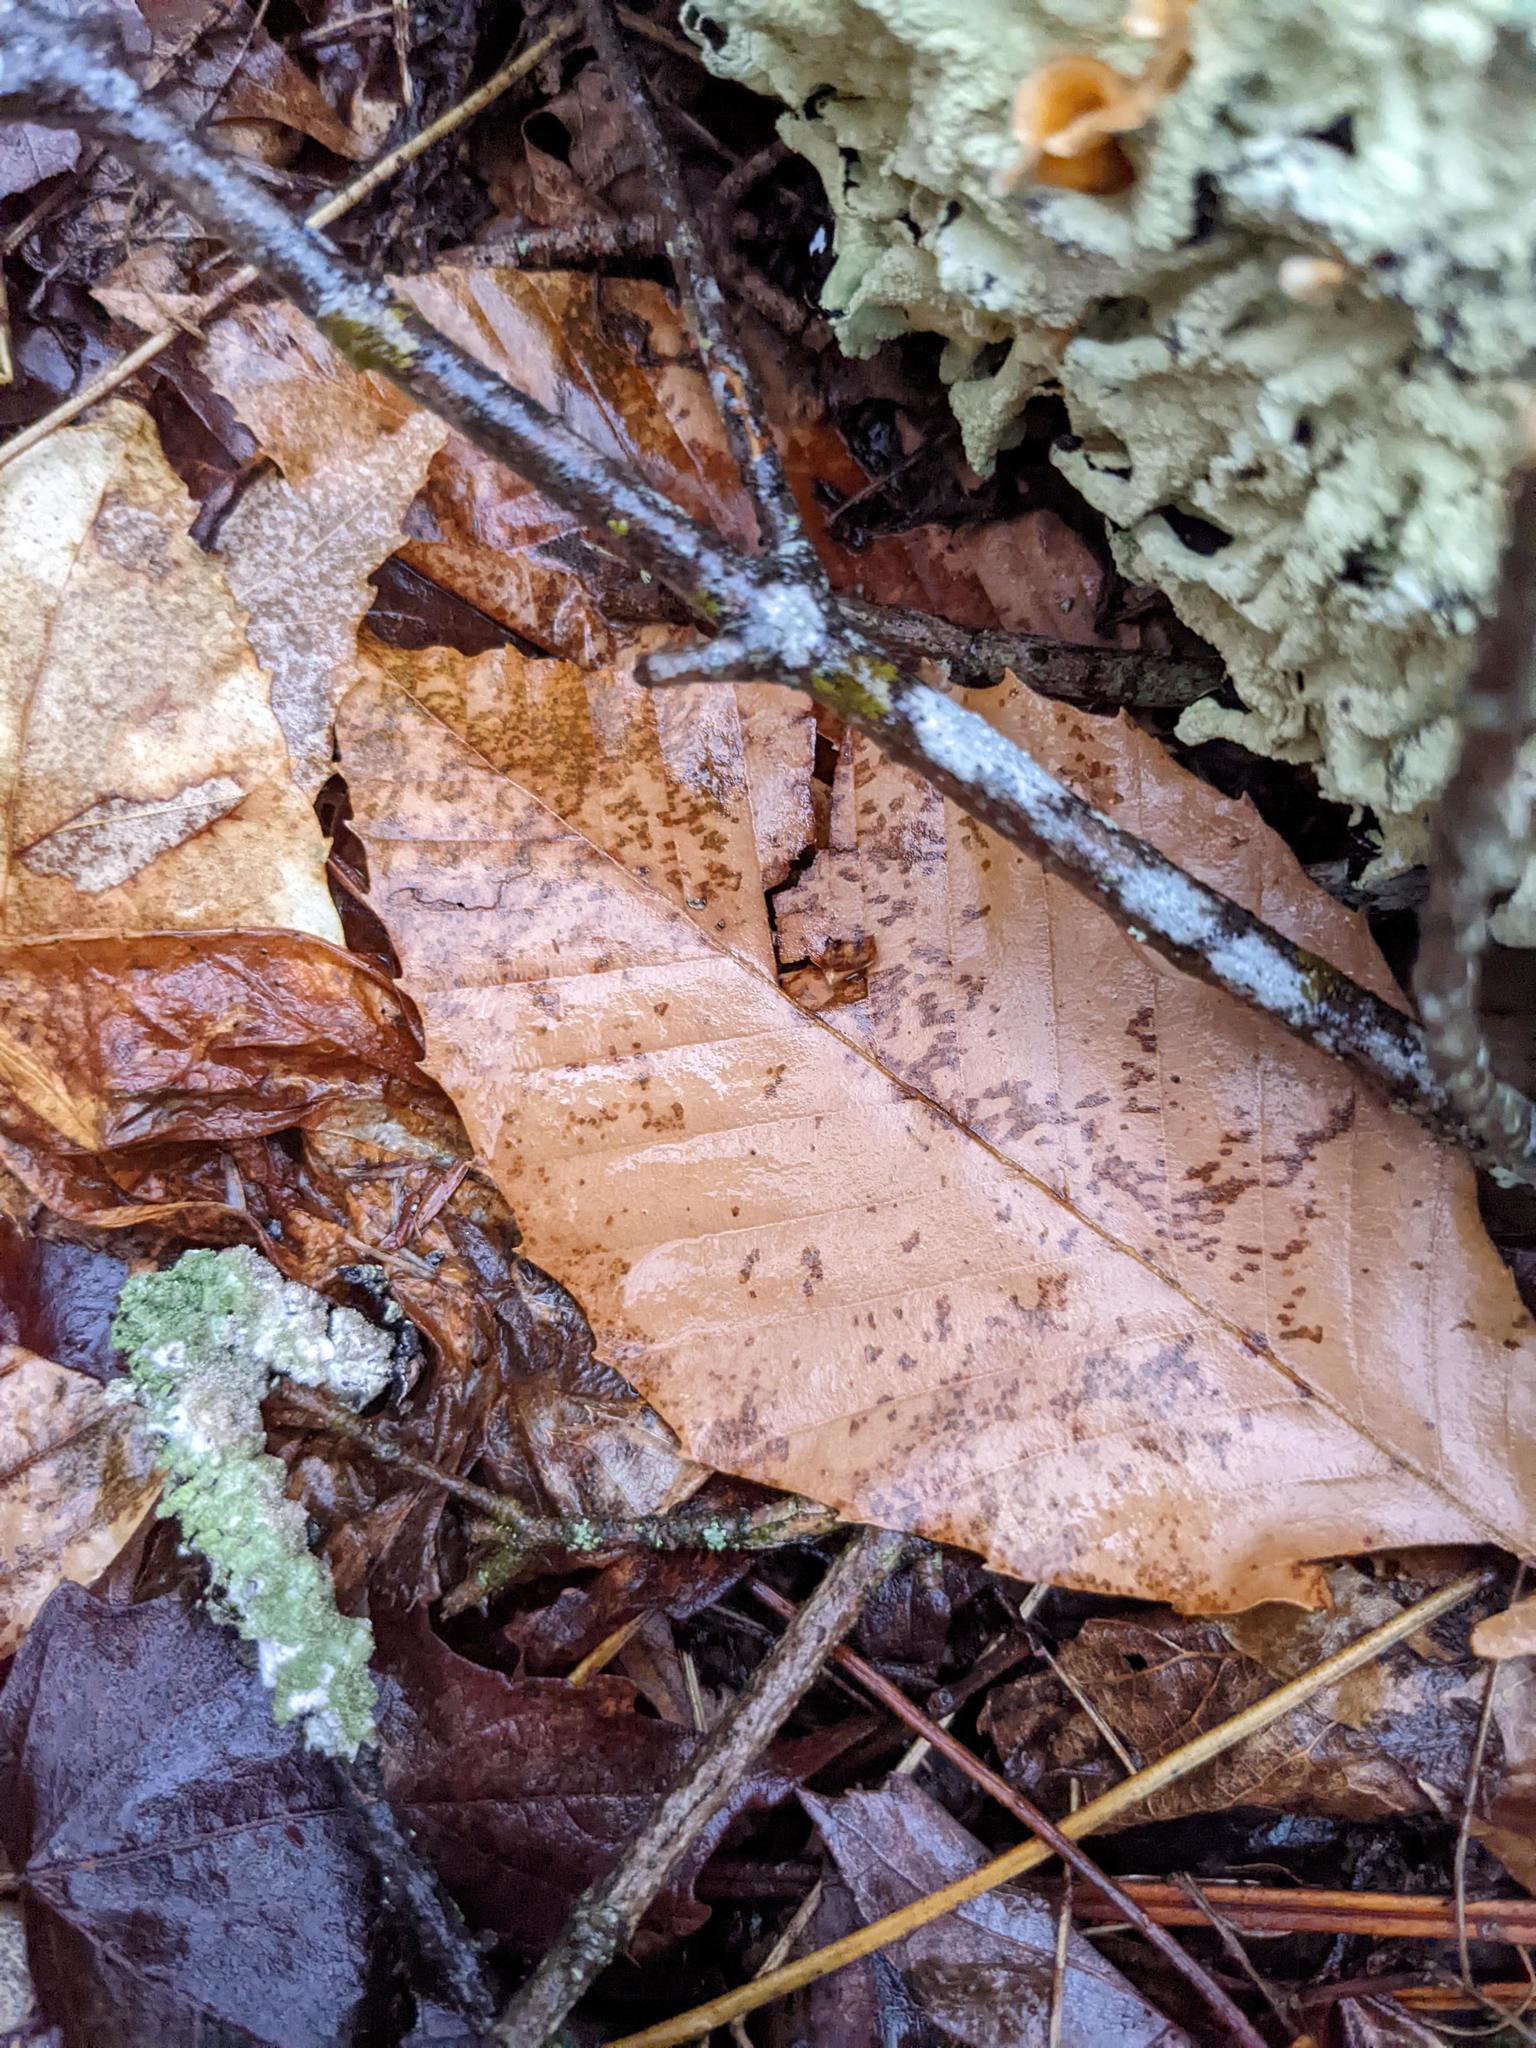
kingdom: Plantae
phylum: Tracheophyta
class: Magnoliopsida
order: Fagales
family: Fagaceae
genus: Fagus
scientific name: Fagus grandifolia
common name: American beech
